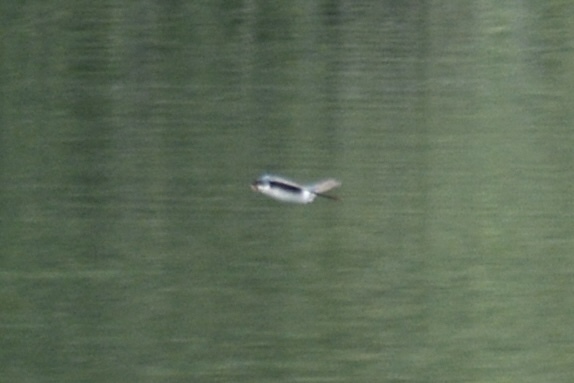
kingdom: Animalia
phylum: Chordata
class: Aves
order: Passeriformes
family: Hirundinidae
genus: Tachycineta
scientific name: Tachycineta bicolor
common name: Tree swallow
